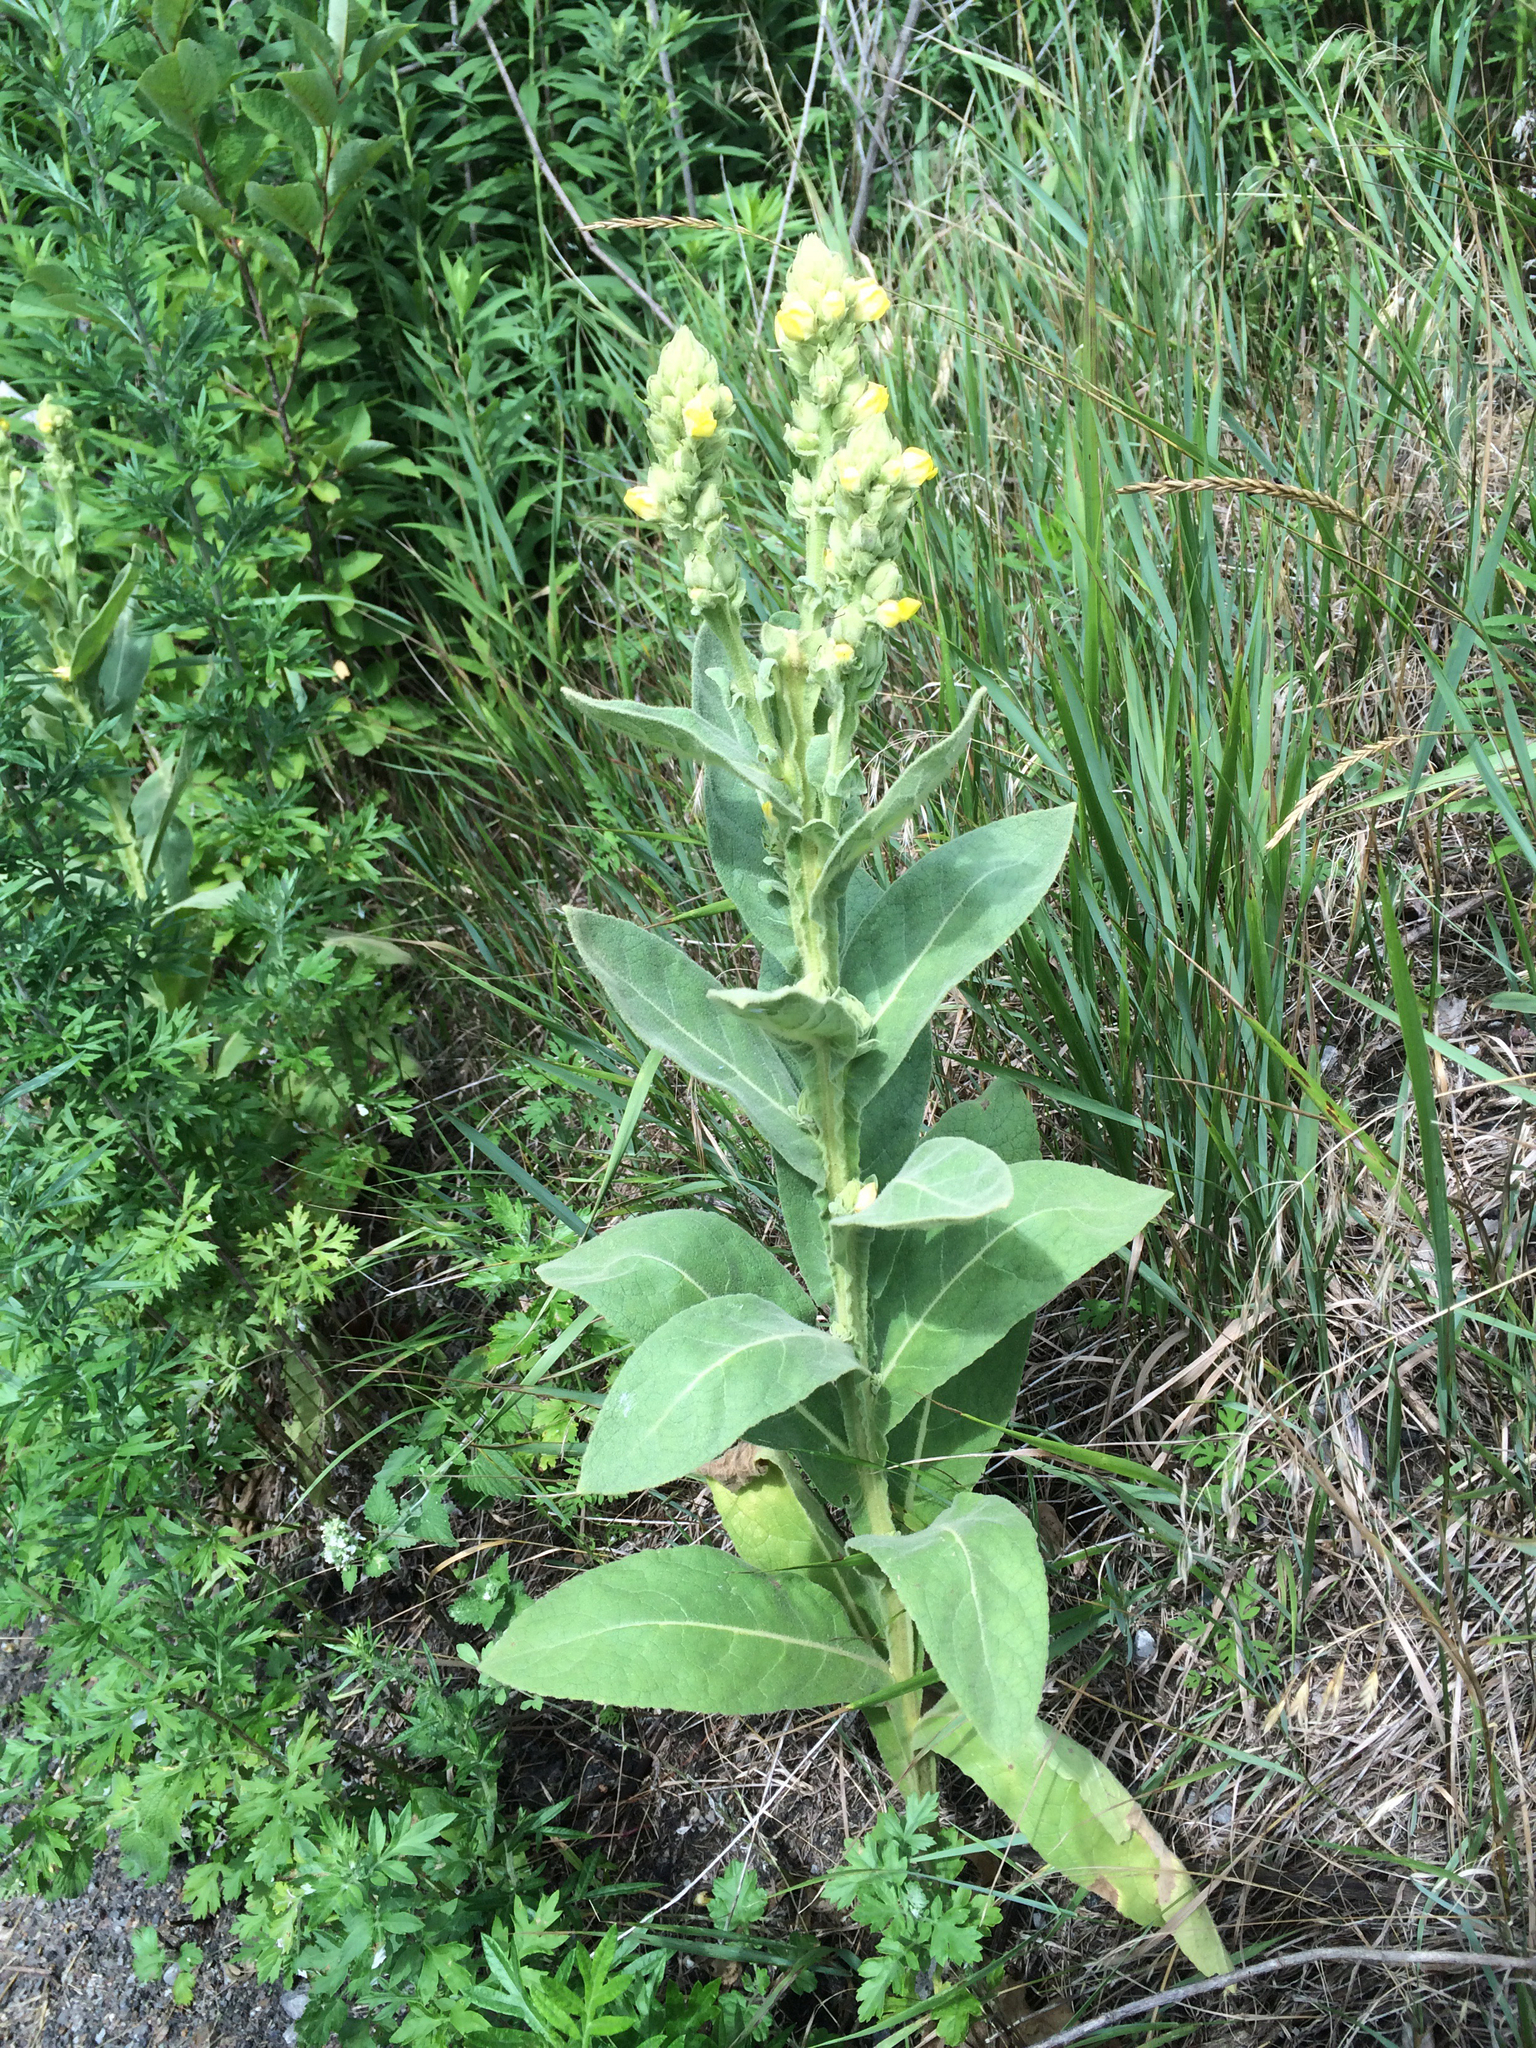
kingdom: Plantae
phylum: Tracheophyta
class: Magnoliopsida
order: Lamiales
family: Scrophulariaceae
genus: Verbascum
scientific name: Verbascum thapsus
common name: Common mullein
